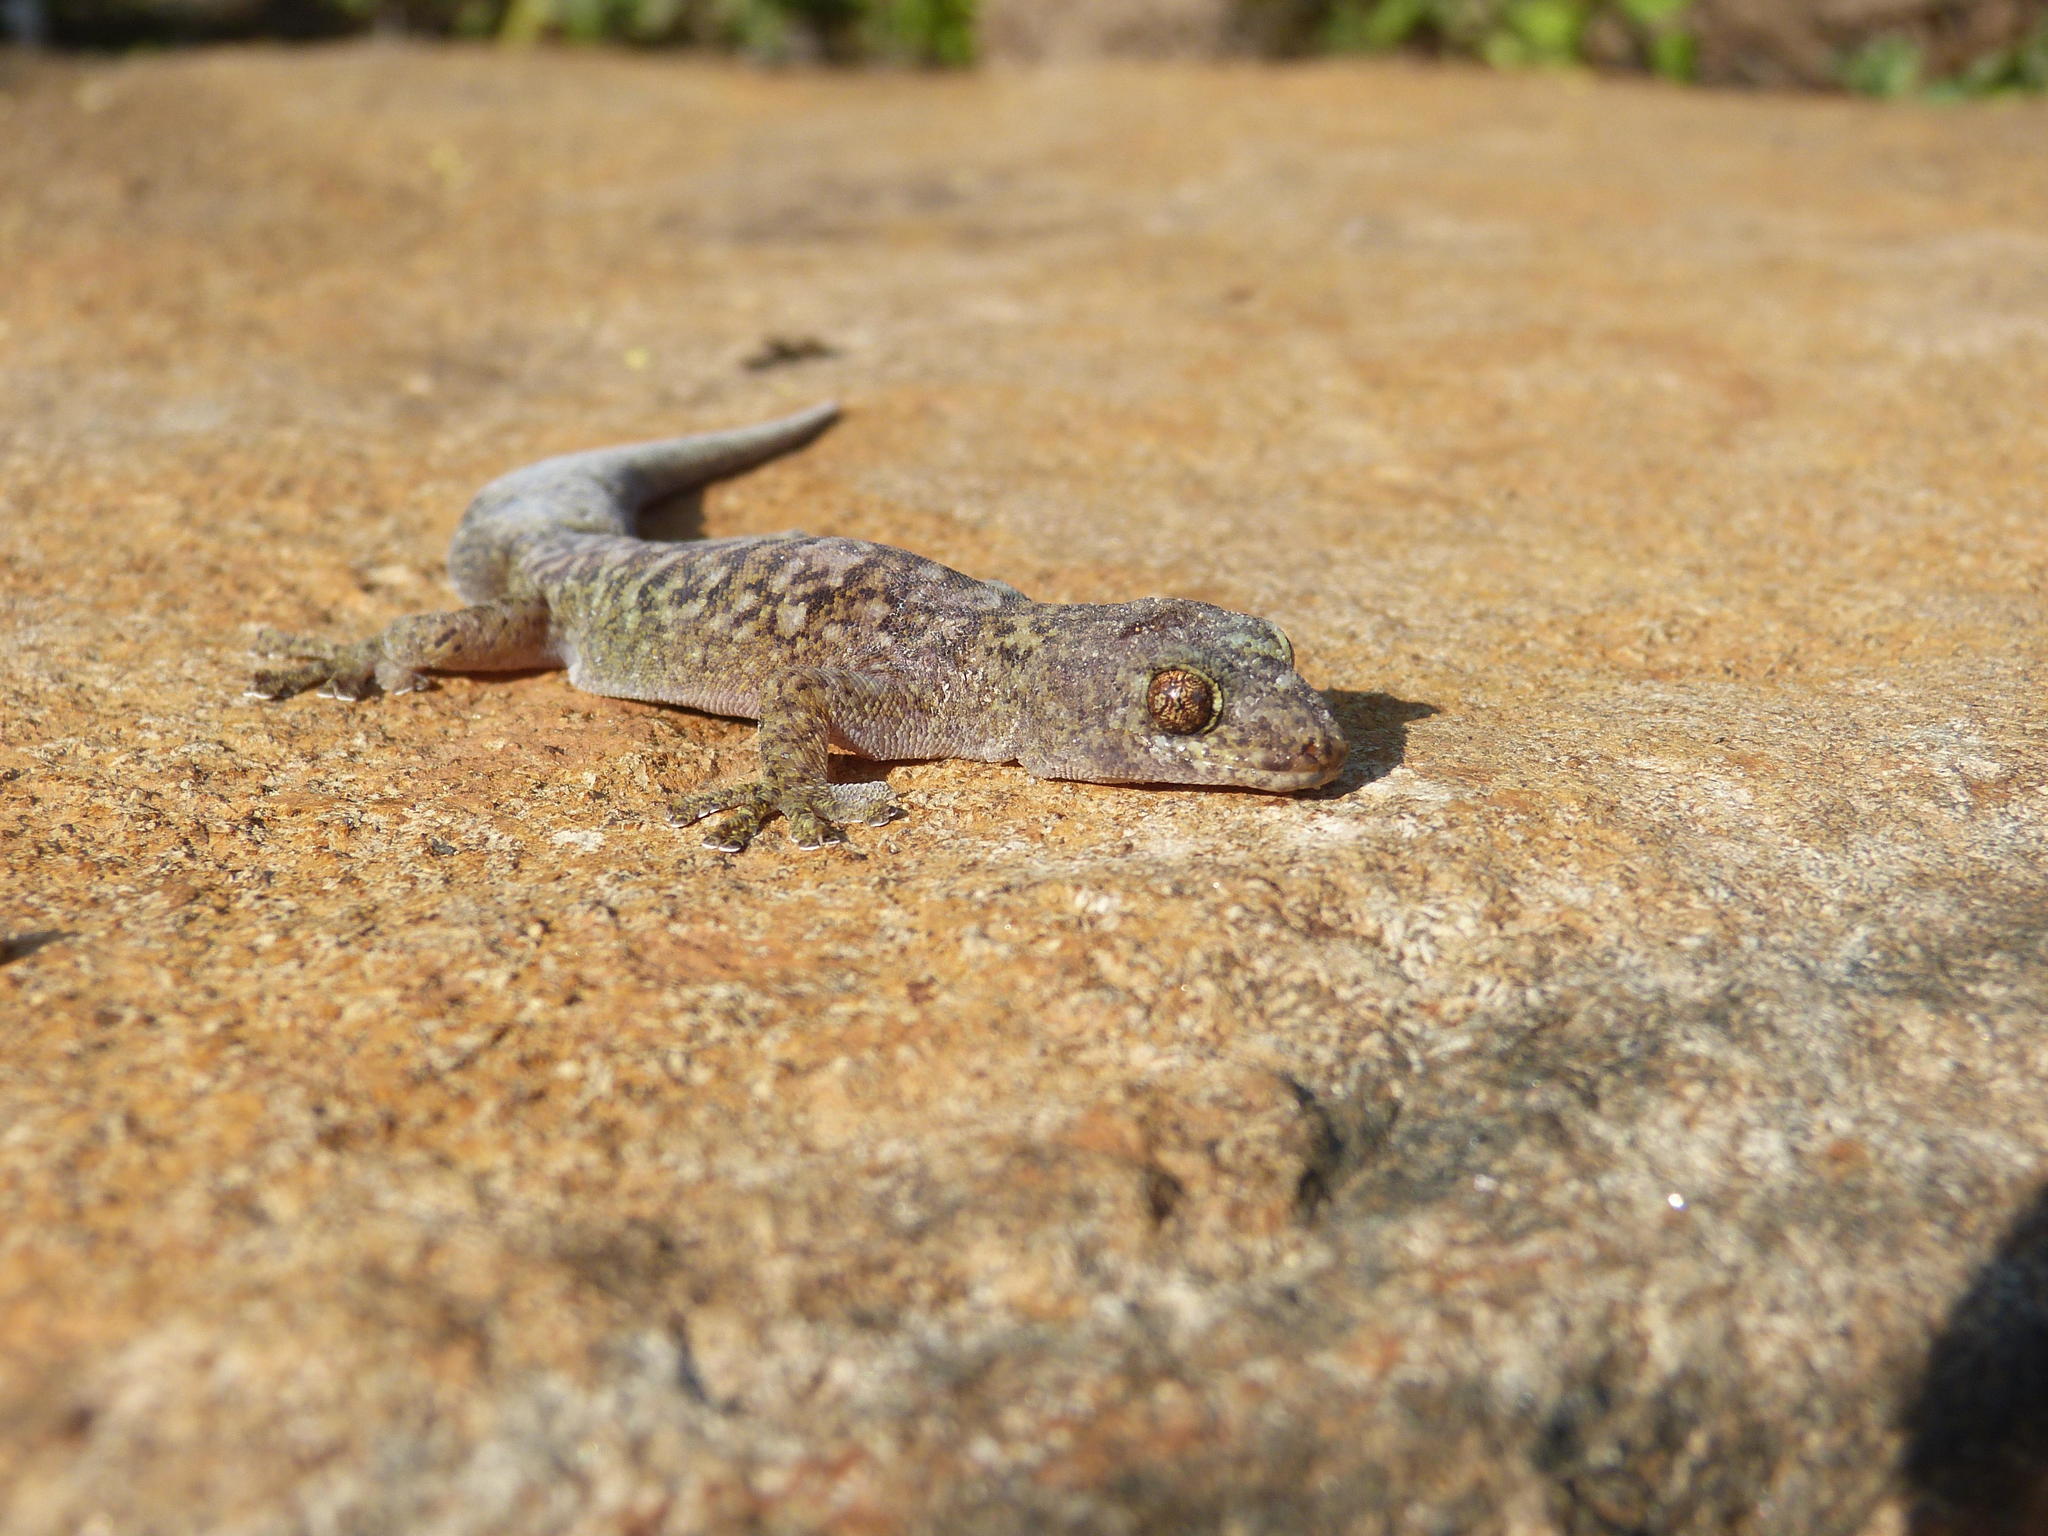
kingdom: Animalia
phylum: Chordata
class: Squamata
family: Gekkonidae
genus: Afroedura
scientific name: Afroedura nivaria
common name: Drakensberg rock gecko
